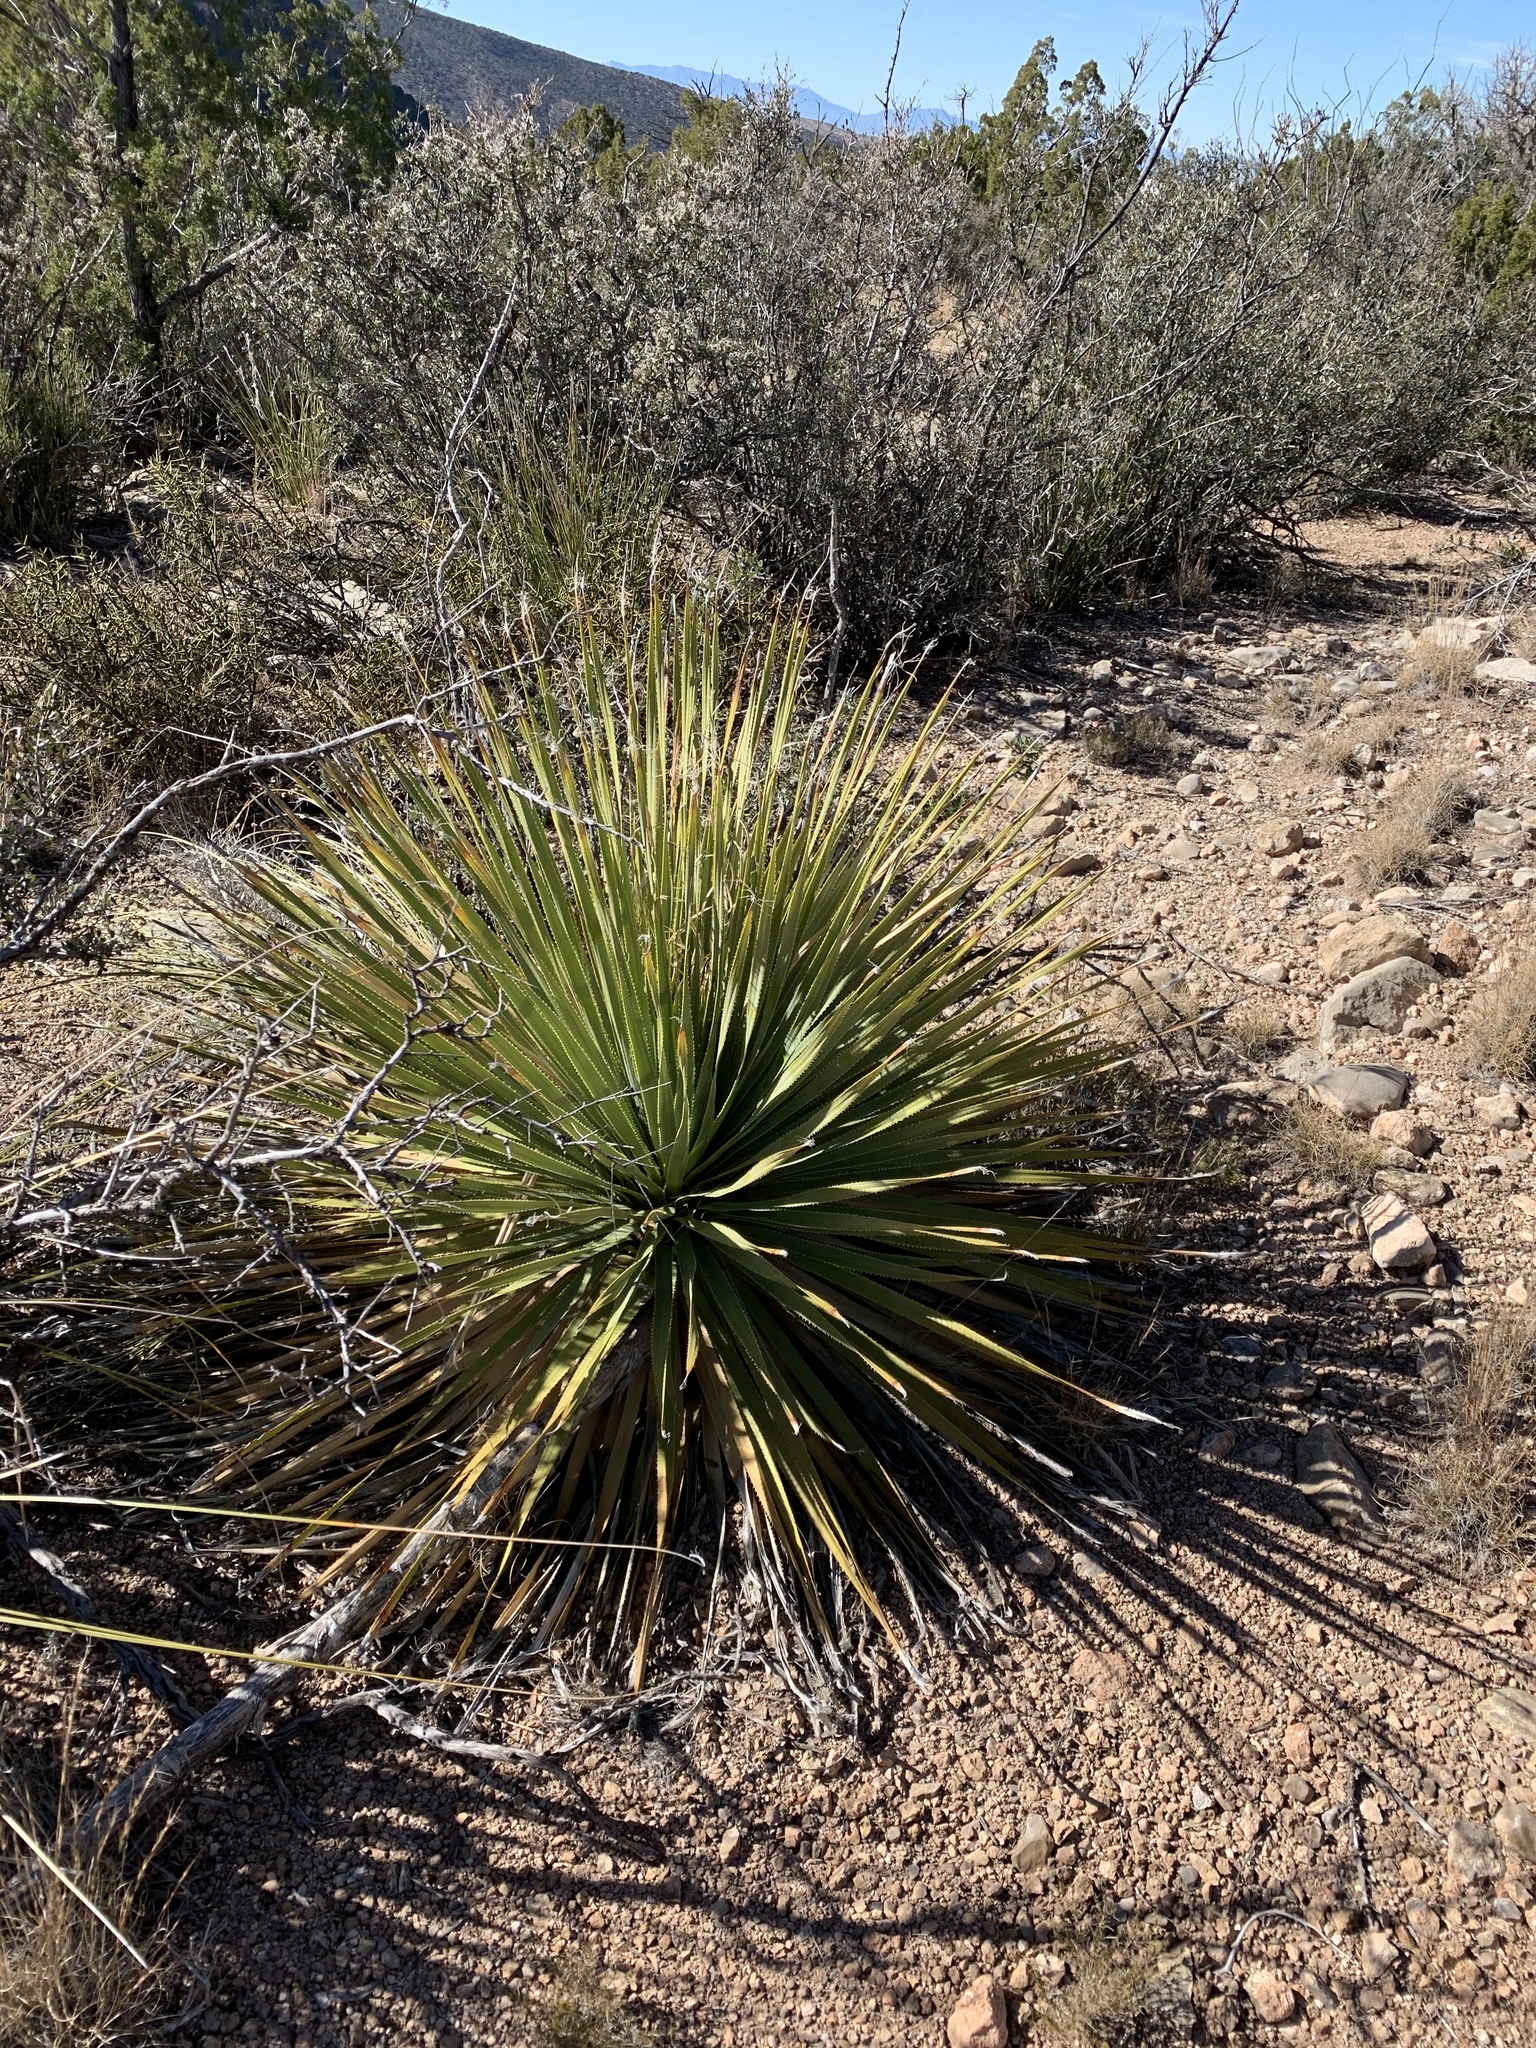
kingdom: Plantae
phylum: Tracheophyta
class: Liliopsida
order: Asparagales
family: Asparagaceae
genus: Dasylirion
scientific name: Dasylirion wheeleri
